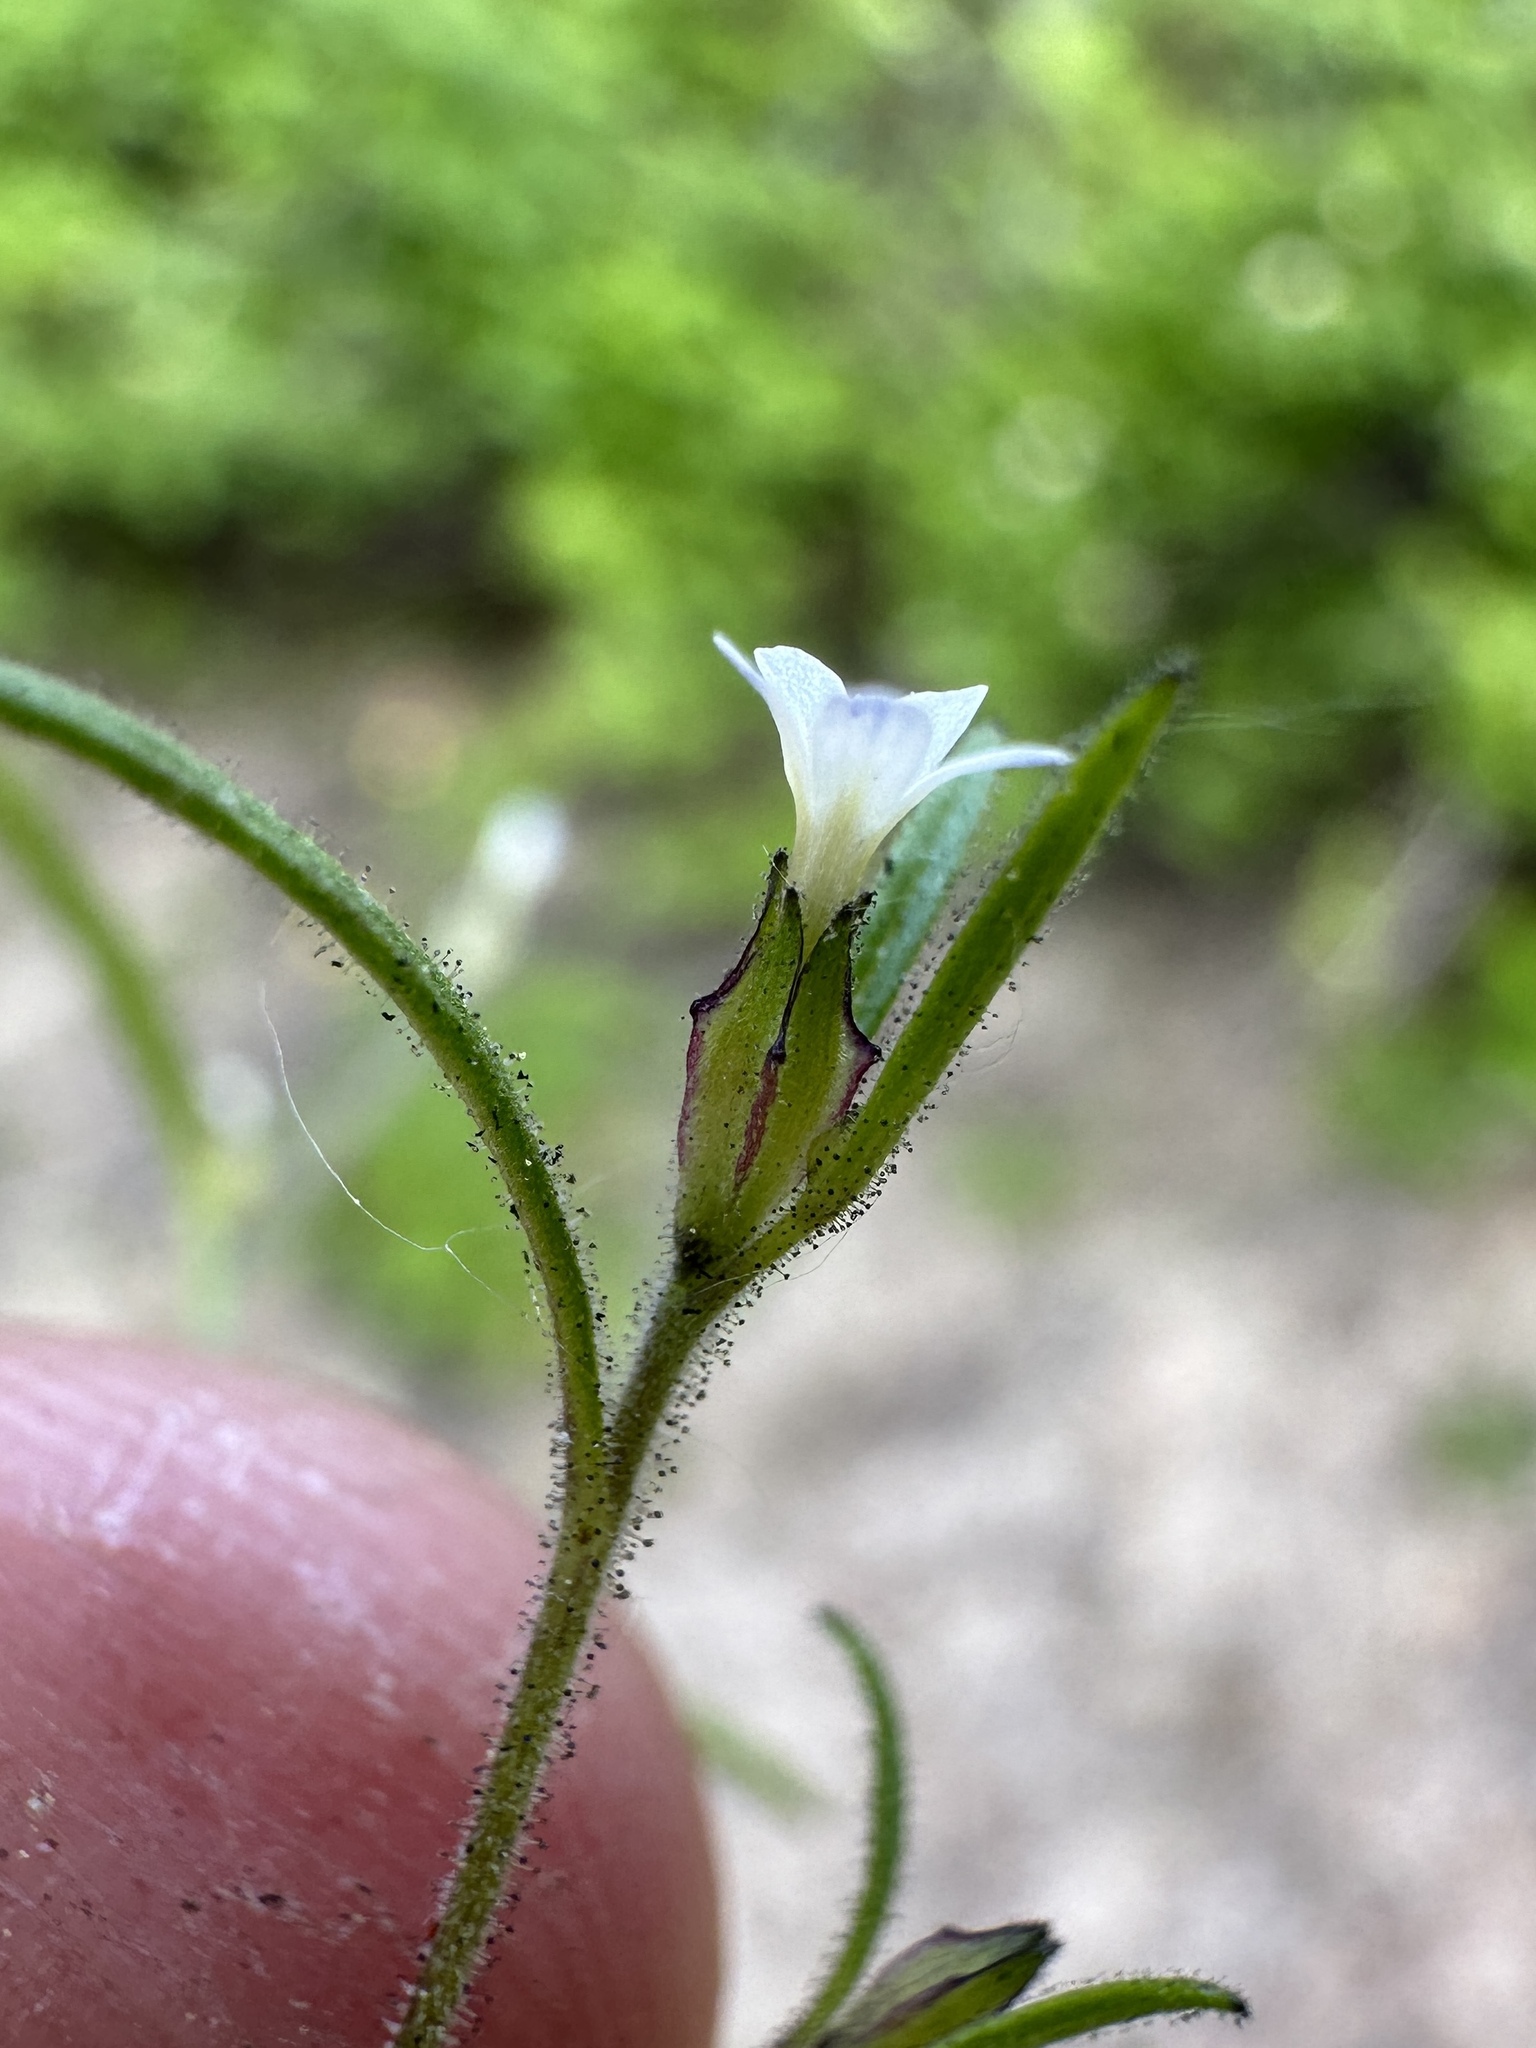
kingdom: Plantae
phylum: Tracheophyta
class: Magnoliopsida
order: Ericales
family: Polemoniaceae
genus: Collomia
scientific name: Collomia tenella
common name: Diffuse collomia
